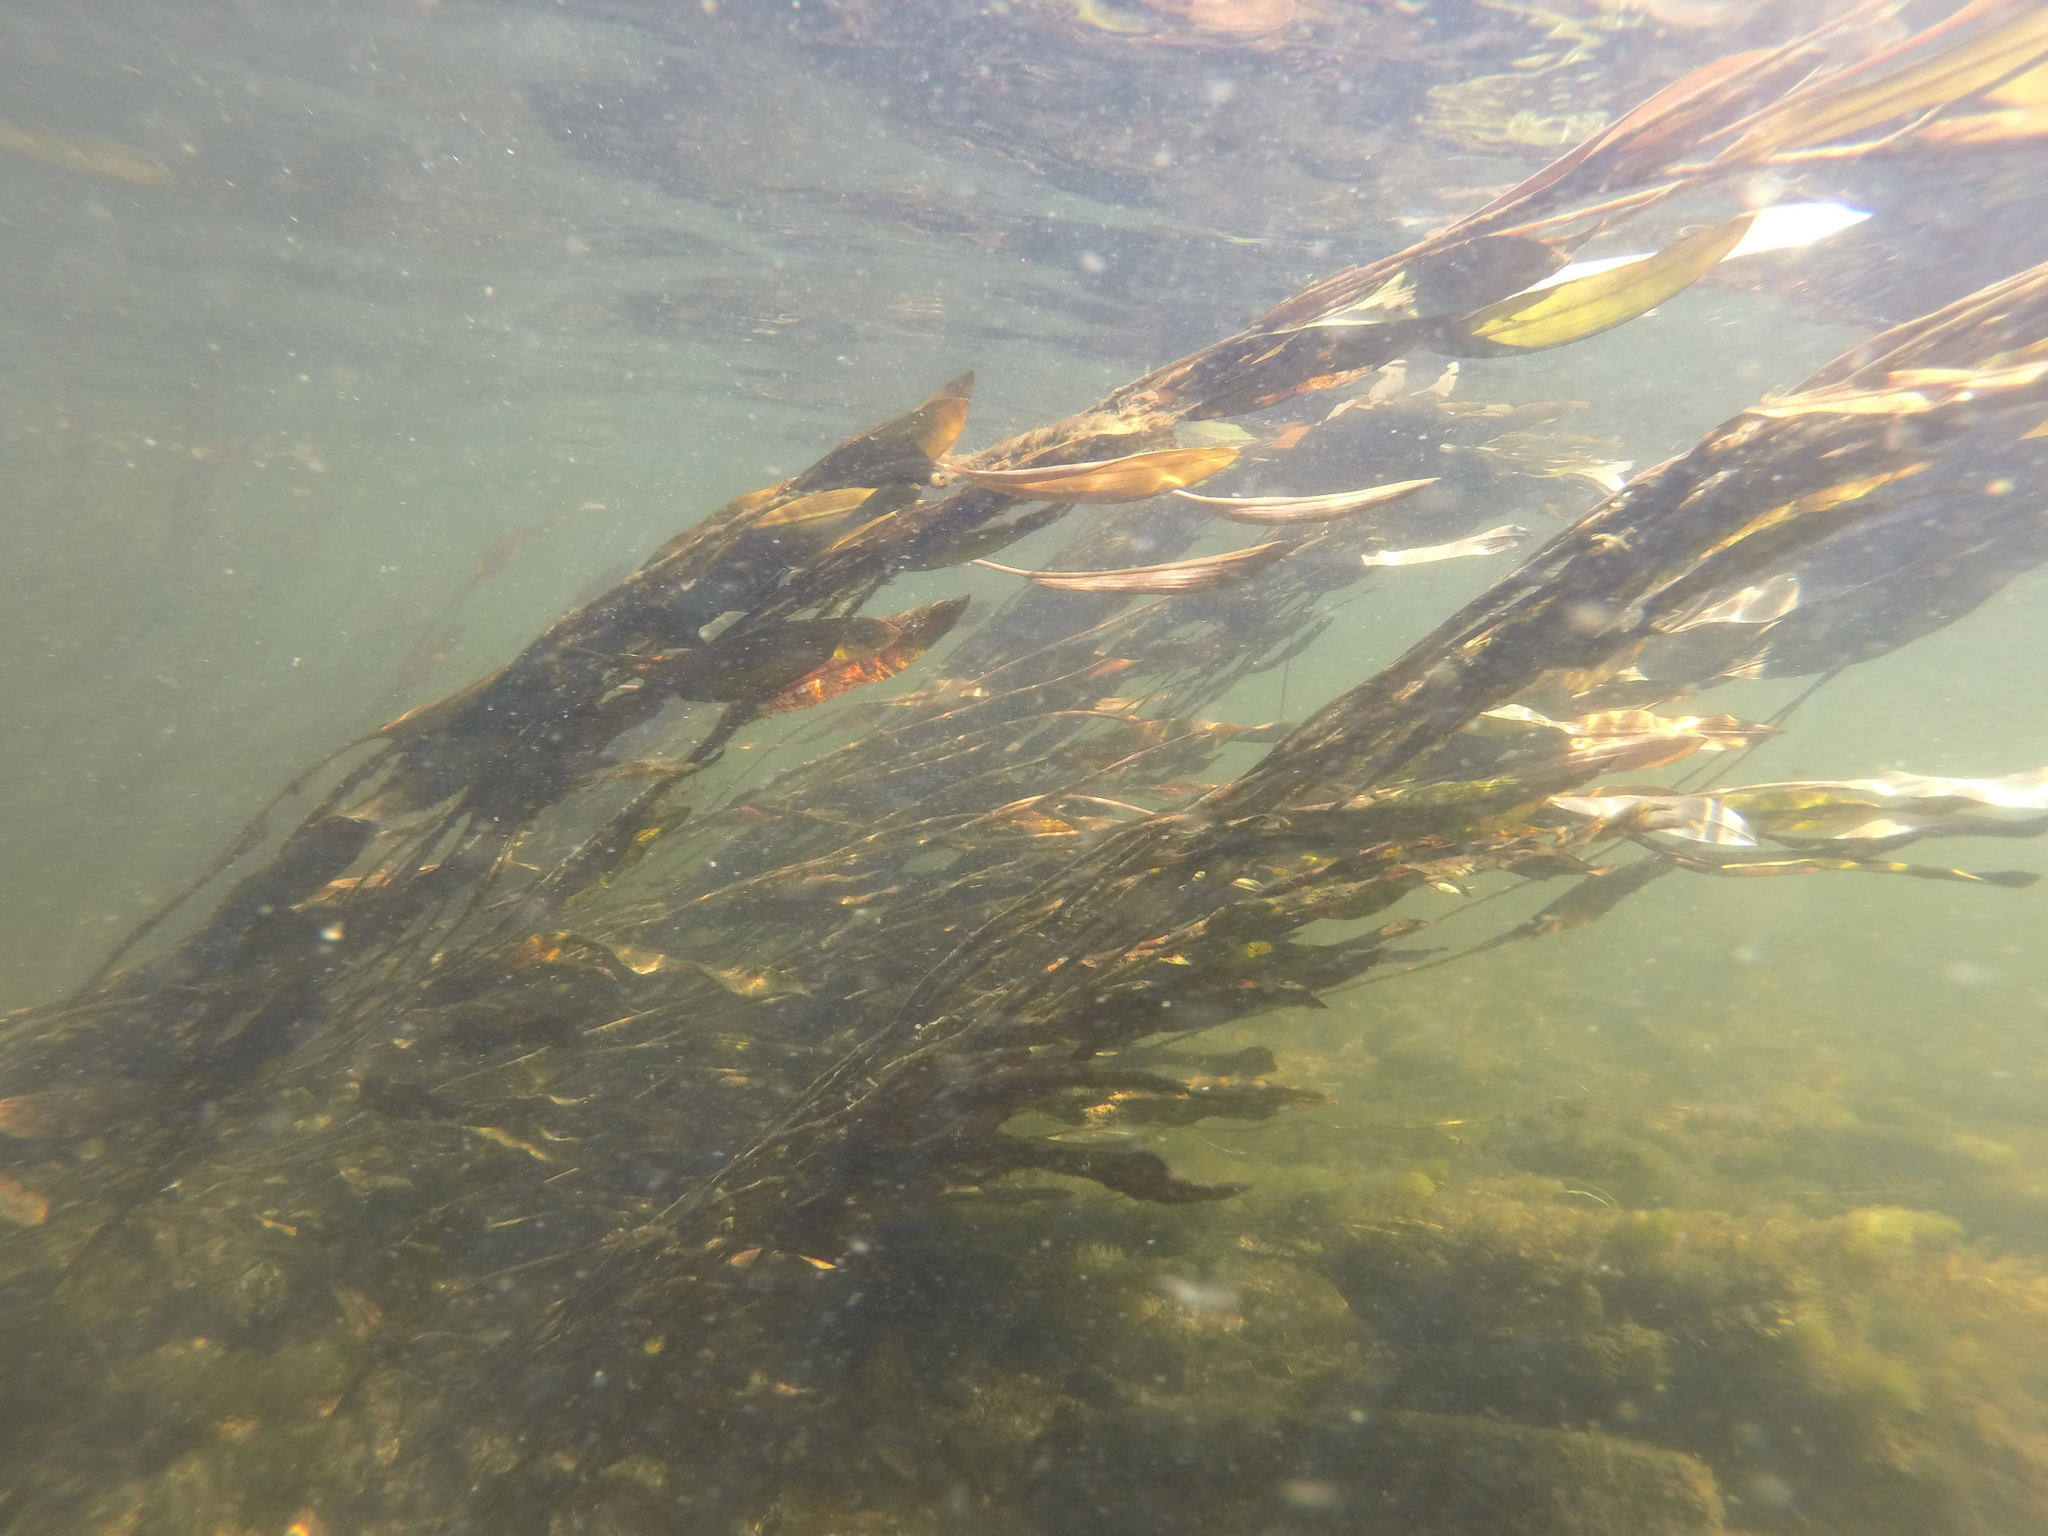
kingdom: Plantae
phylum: Tracheophyta
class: Liliopsida
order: Alismatales
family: Potamogetonaceae
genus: Potamogeton
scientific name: Potamogeton nodosus
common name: Loddon pondweed
